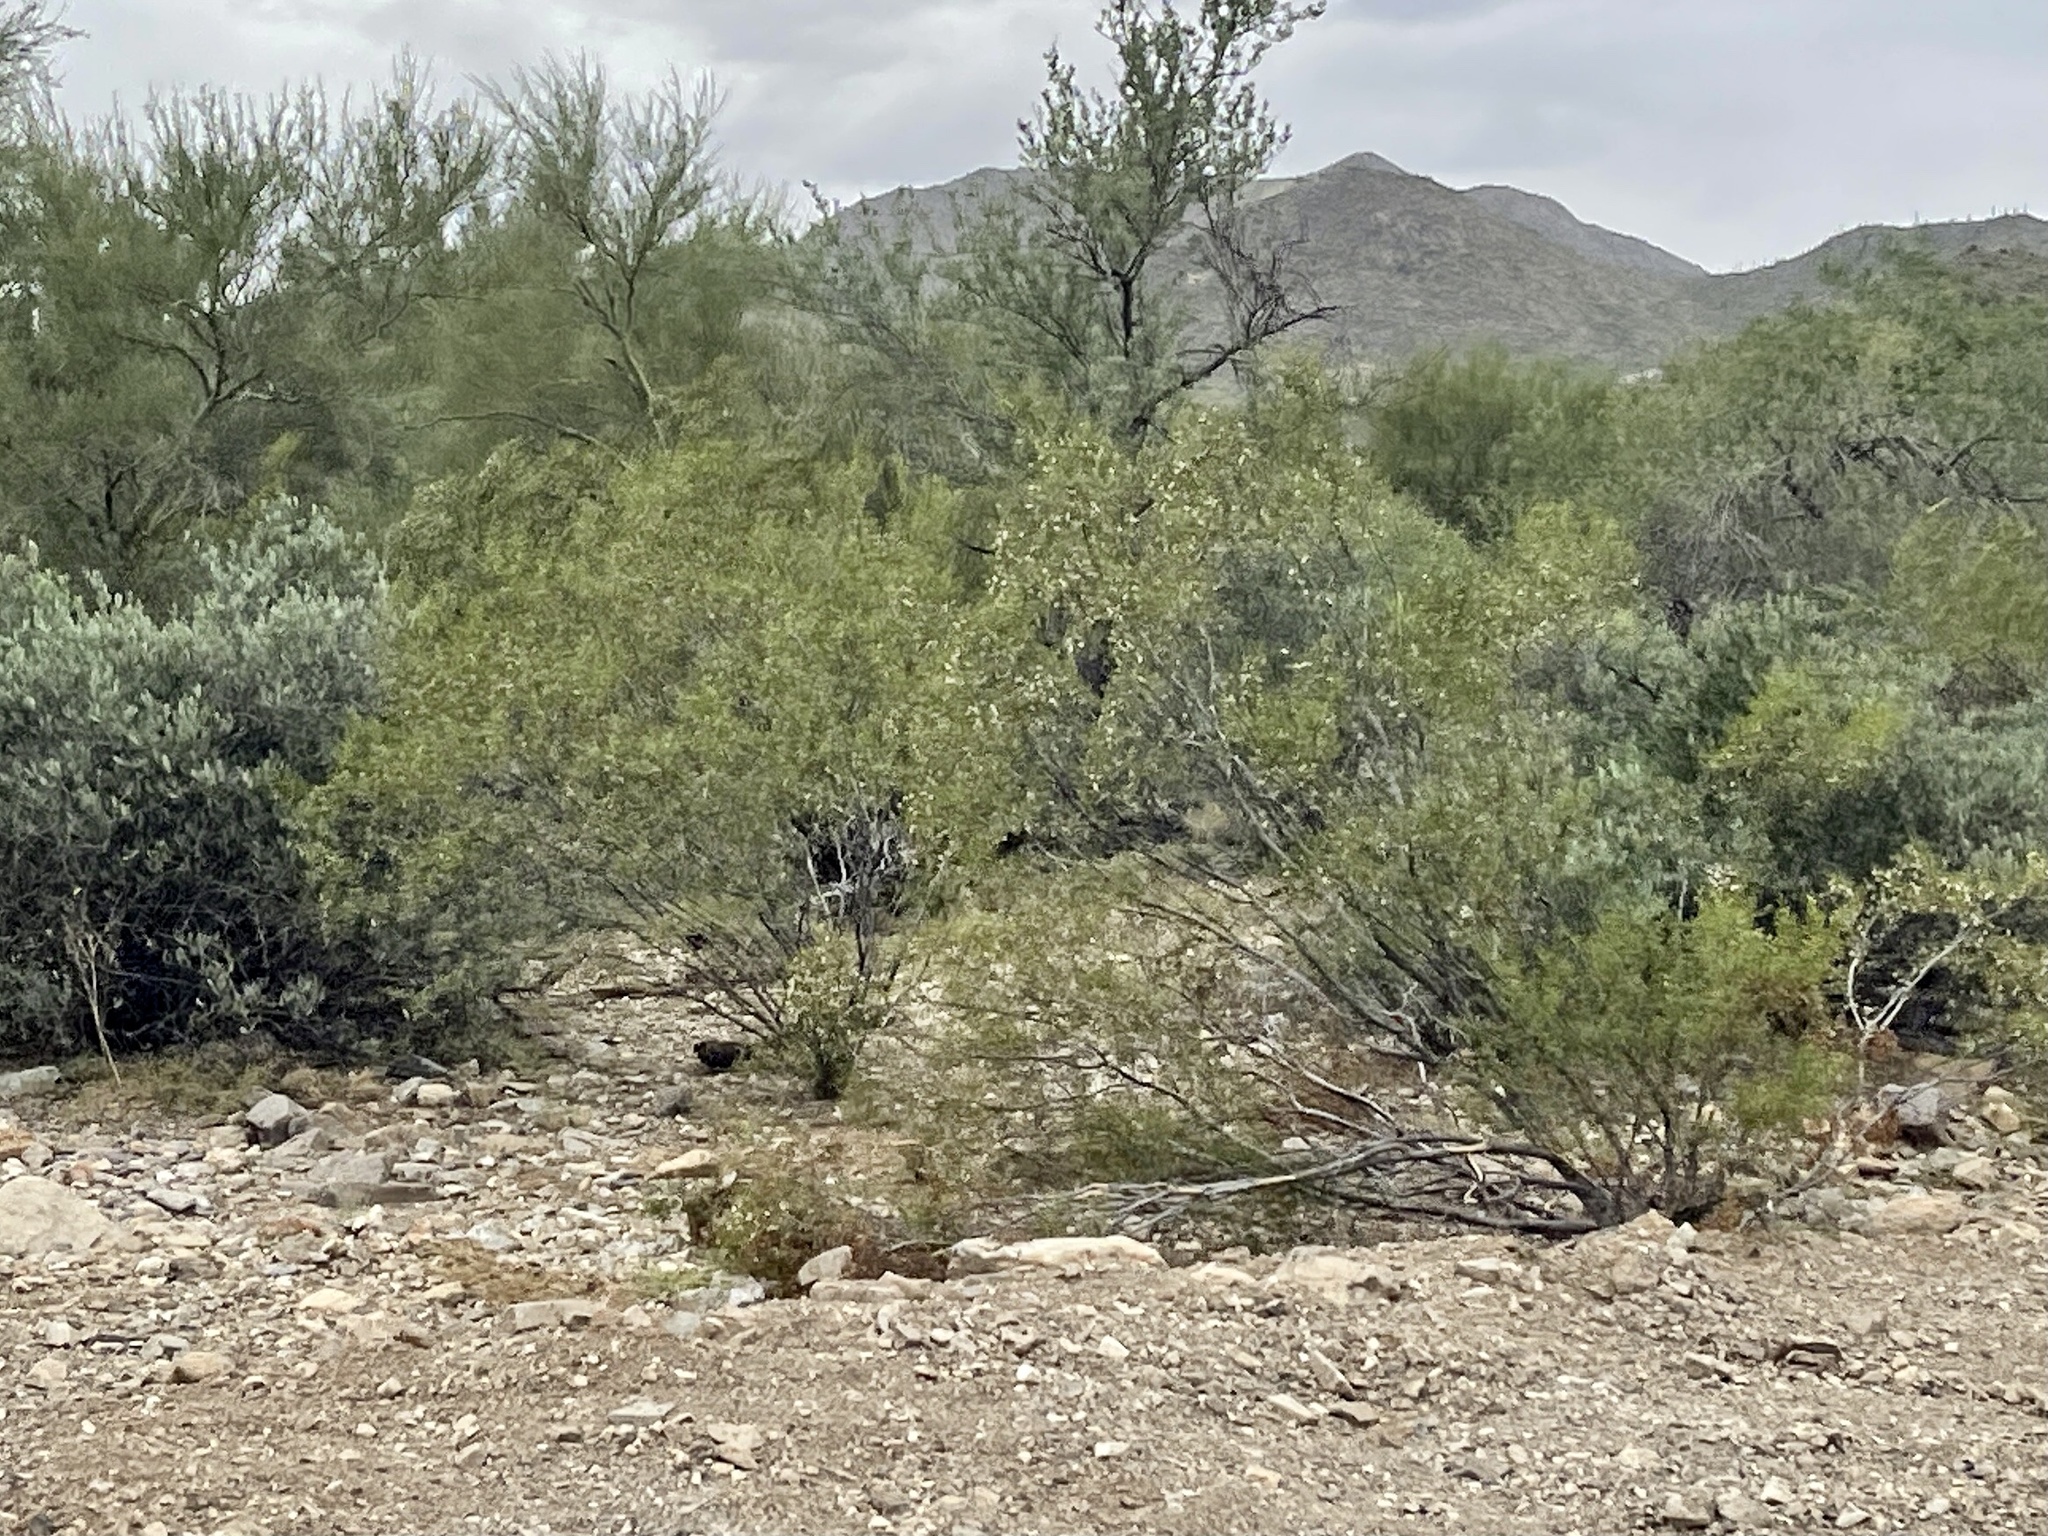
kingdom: Plantae
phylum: Tracheophyta
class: Magnoliopsida
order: Zygophyllales
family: Zygophyllaceae
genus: Larrea
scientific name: Larrea tridentata
